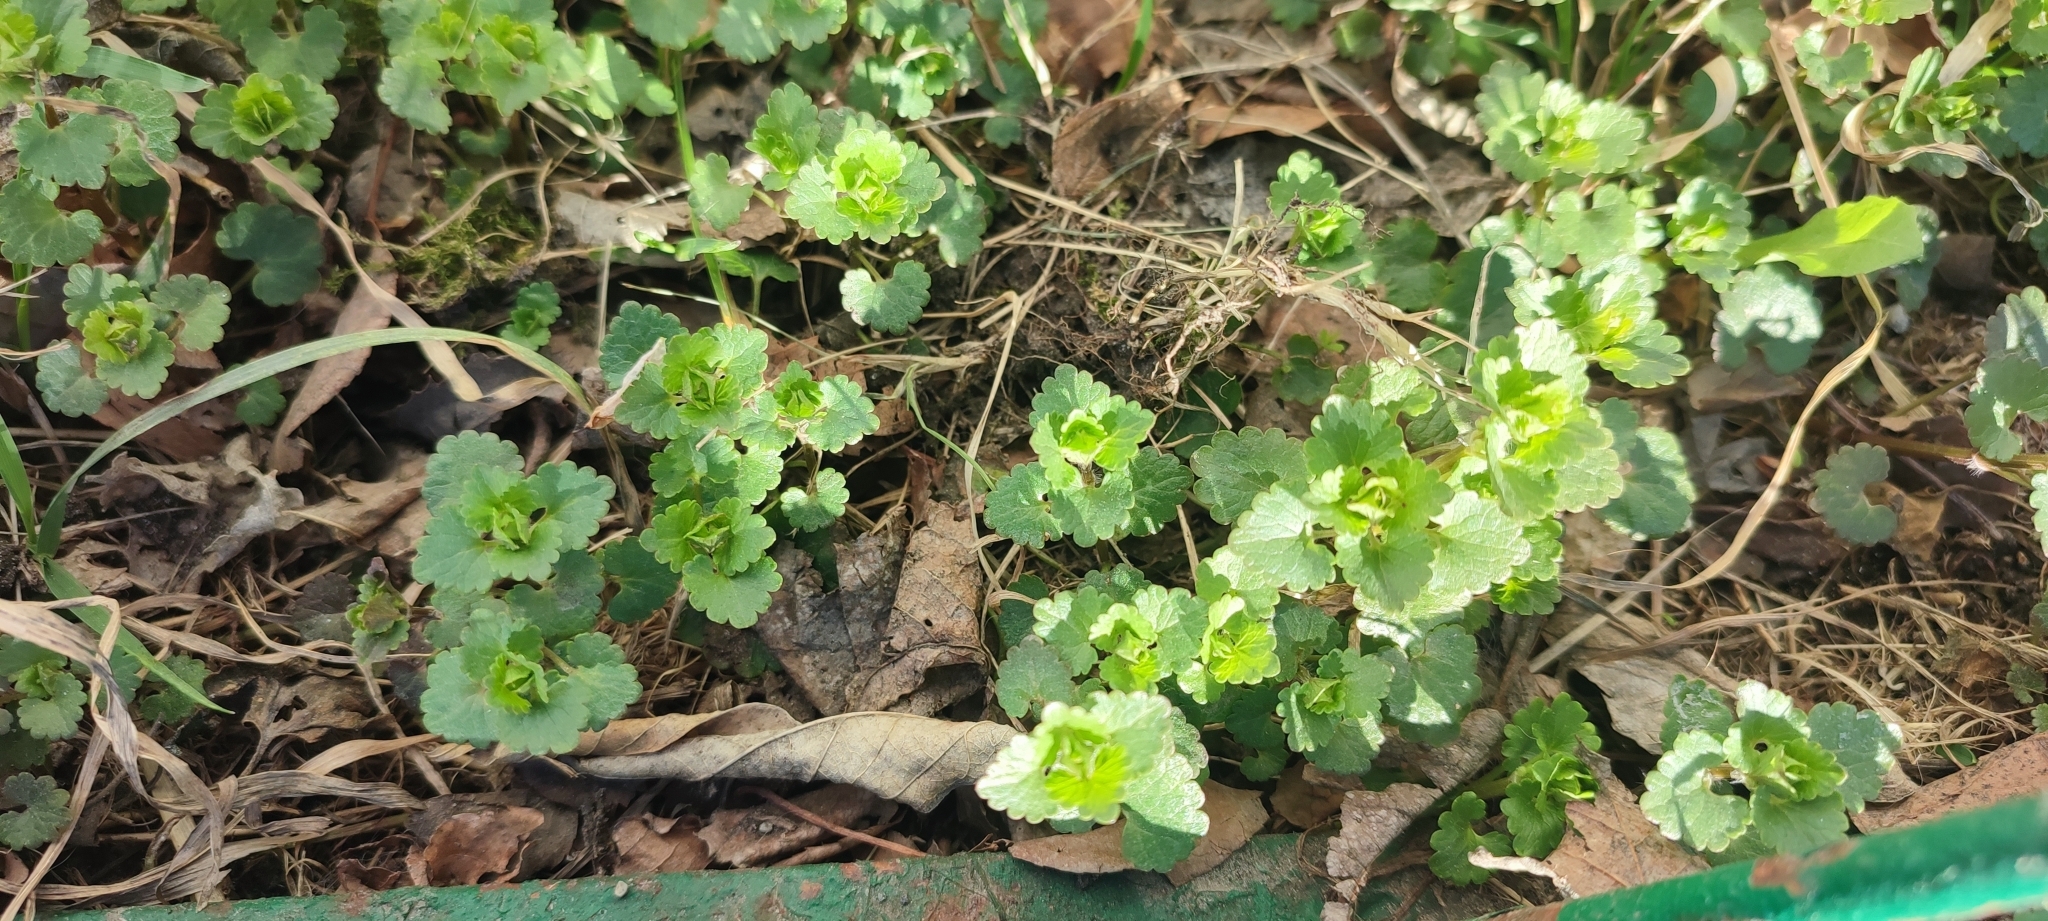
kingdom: Plantae
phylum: Tracheophyta
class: Magnoliopsida
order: Lamiales
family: Lamiaceae
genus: Glechoma
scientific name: Glechoma hederacea
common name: Ground ivy
